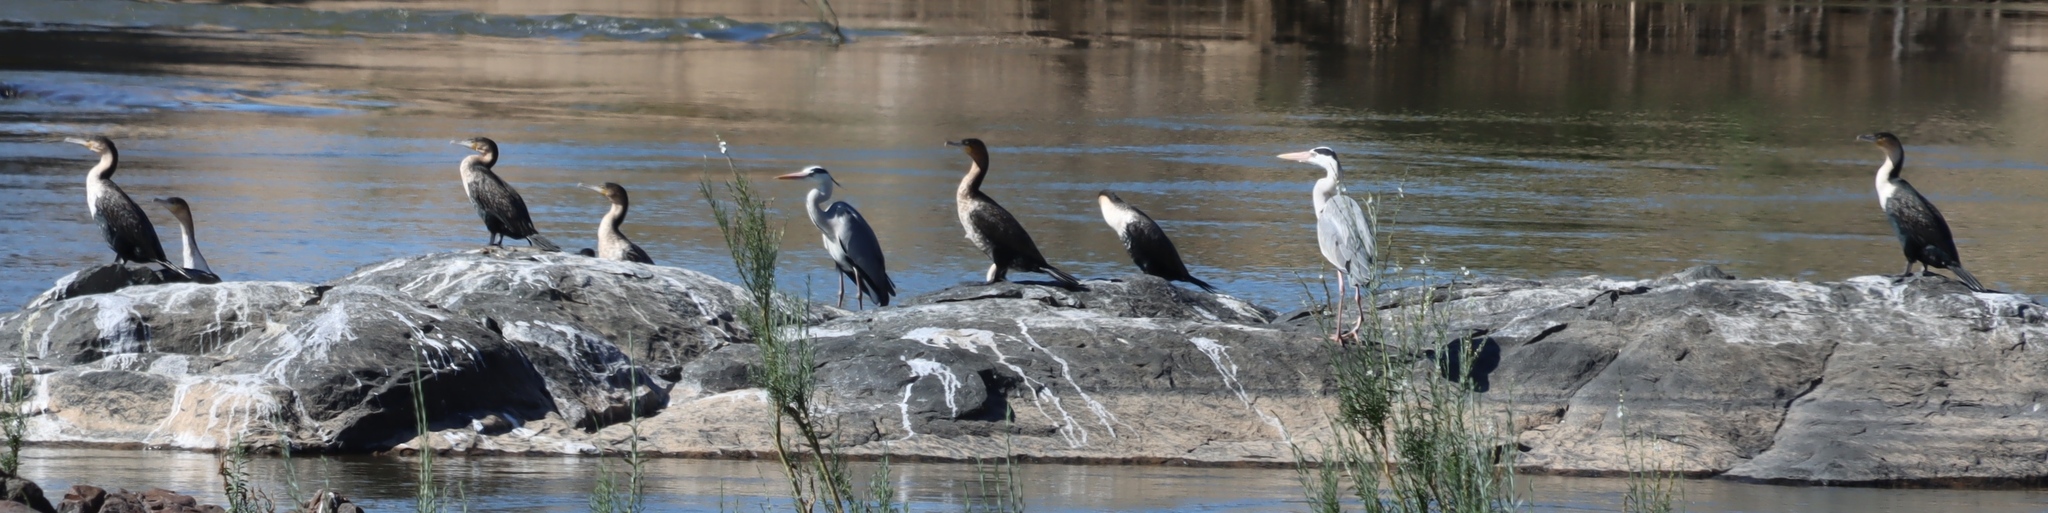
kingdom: Animalia
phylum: Chordata
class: Aves
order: Suliformes
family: Phalacrocoracidae
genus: Phalacrocorax
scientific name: Phalacrocorax carbo
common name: Great cormorant
